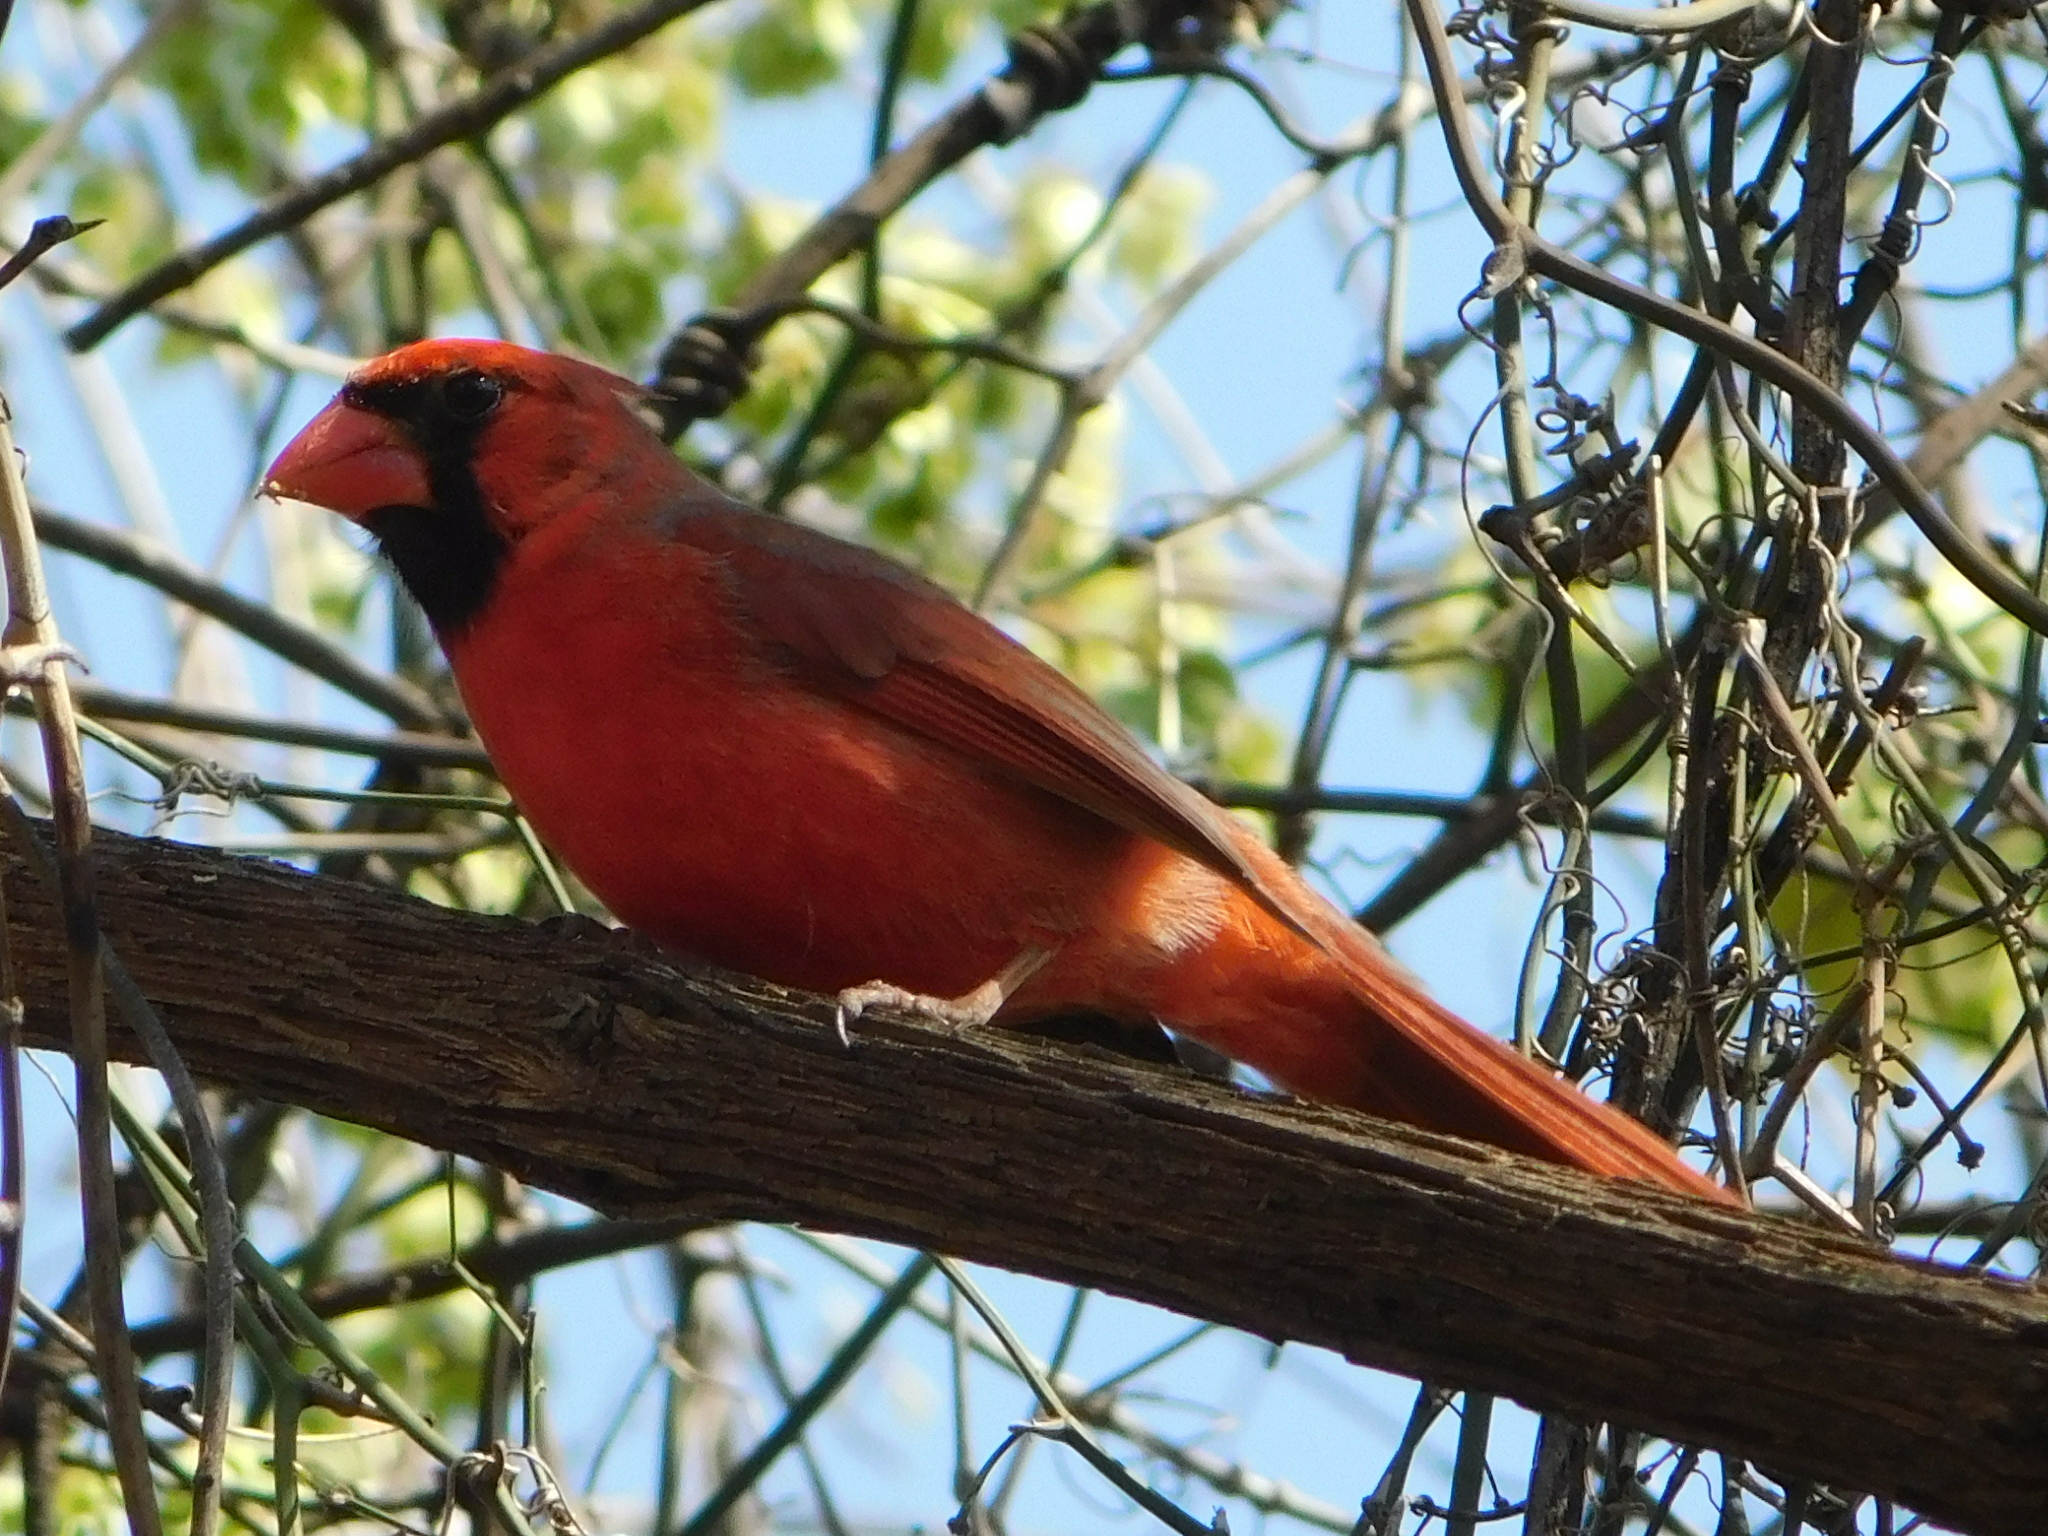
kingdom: Animalia
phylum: Chordata
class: Aves
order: Passeriformes
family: Cardinalidae
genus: Cardinalis
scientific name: Cardinalis cardinalis
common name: Northern cardinal
